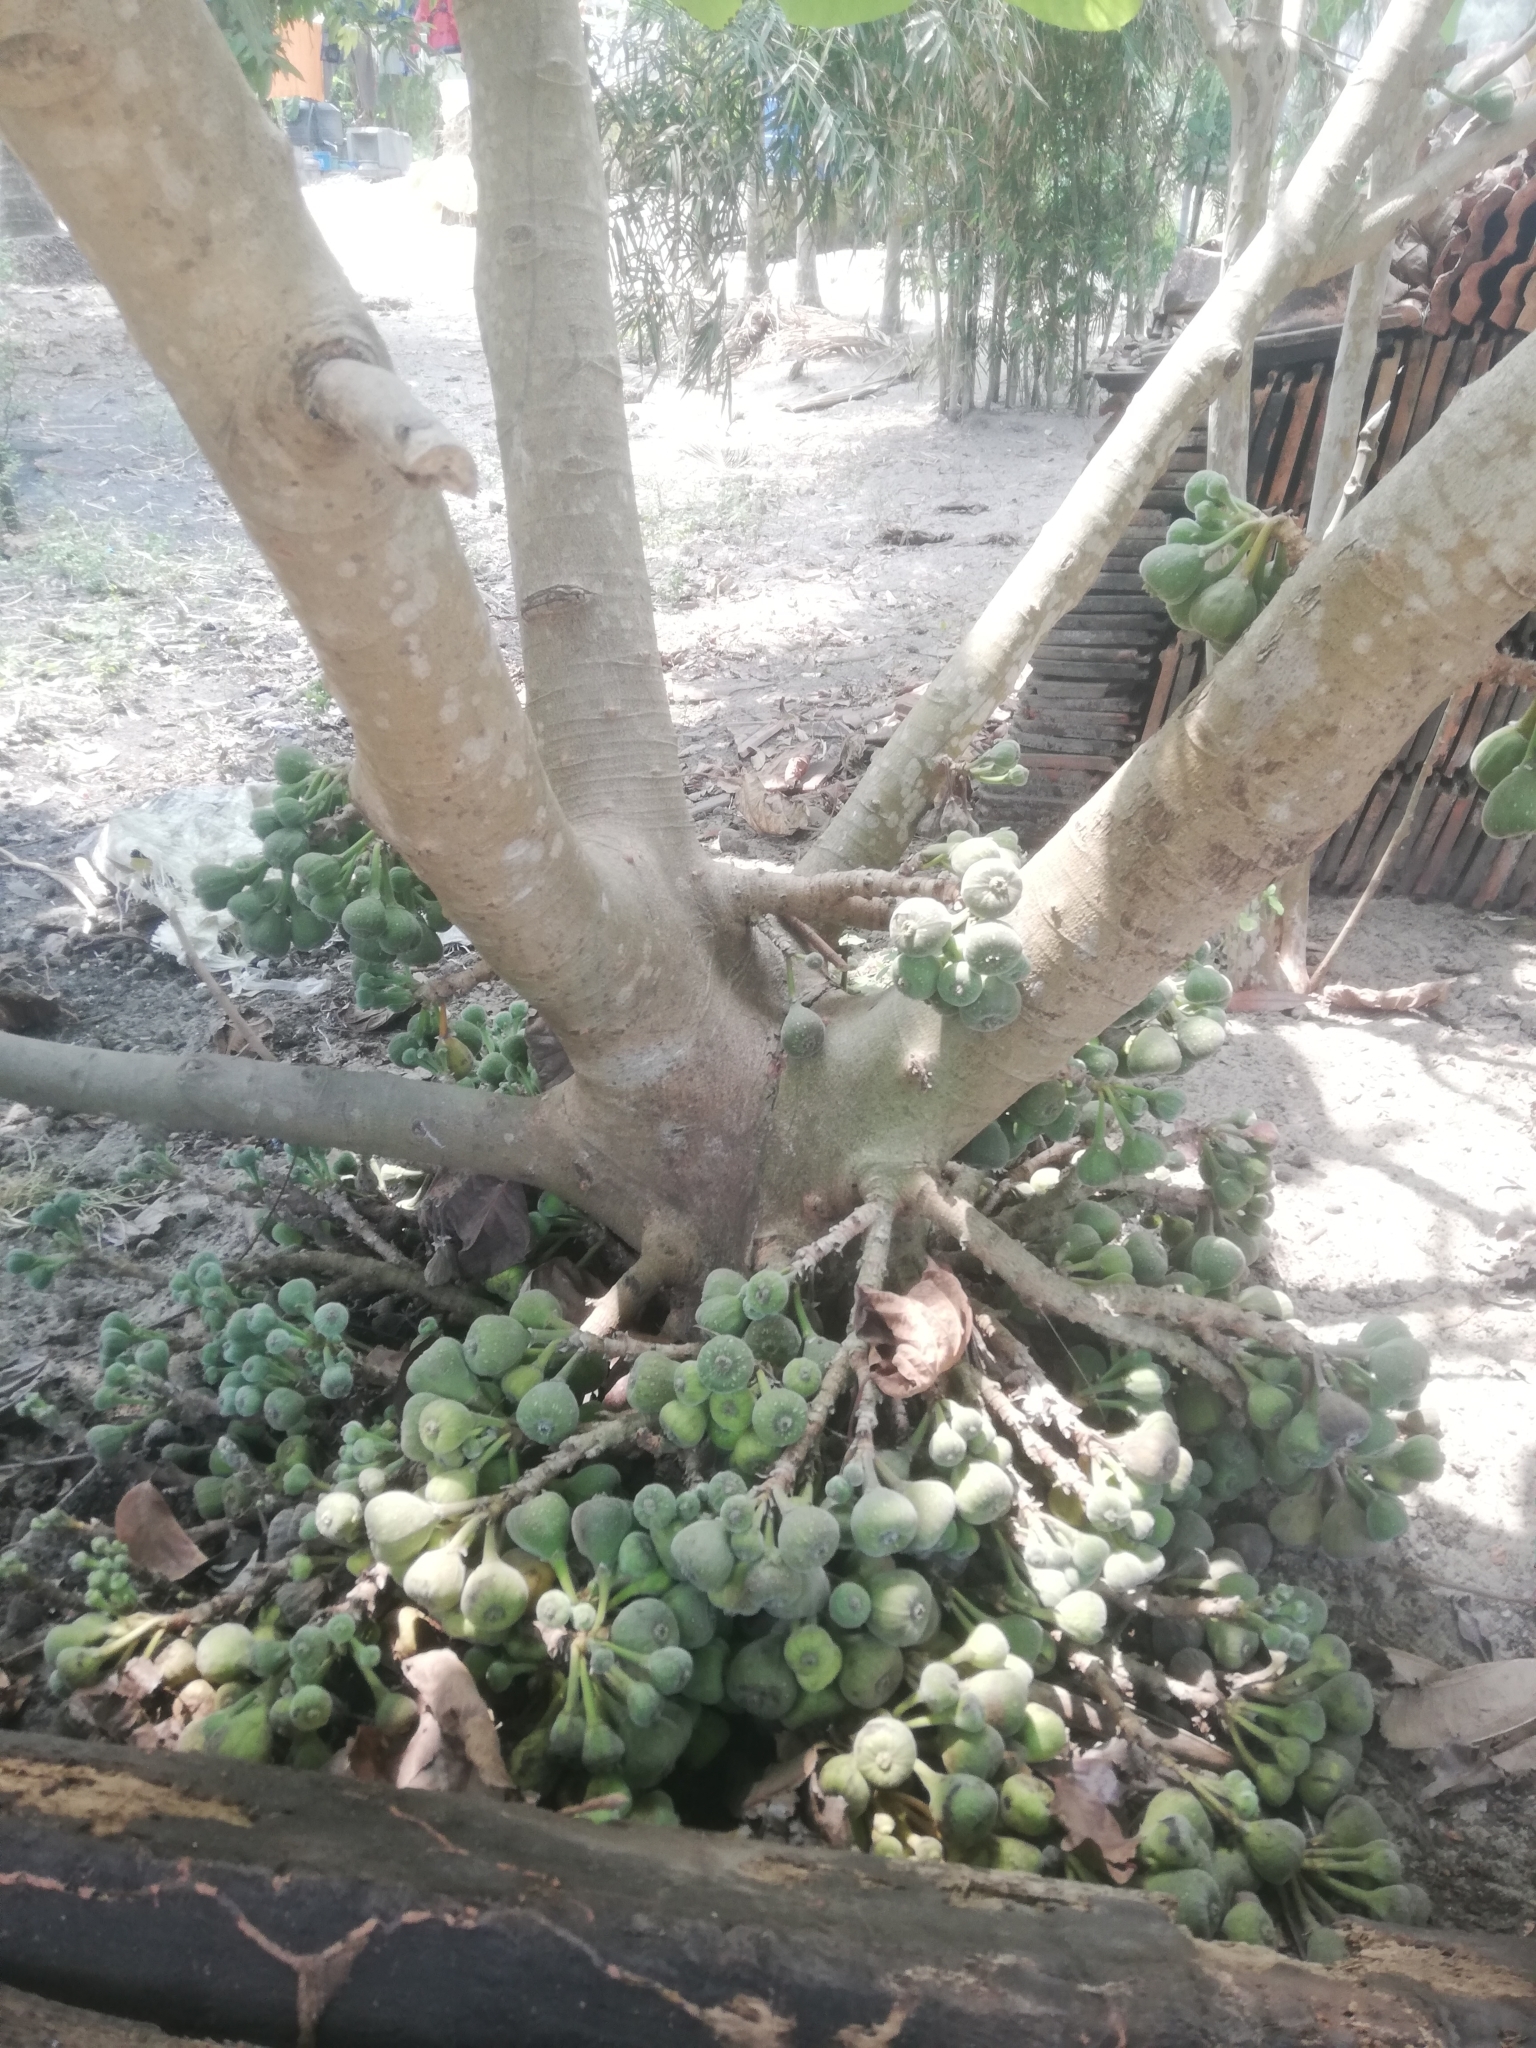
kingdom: Plantae
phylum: Tracheophyta
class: Magnoliopsida
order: Rosales
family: Moraceae
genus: Ficus
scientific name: Ficus auriculata
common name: Roxburgh fig
